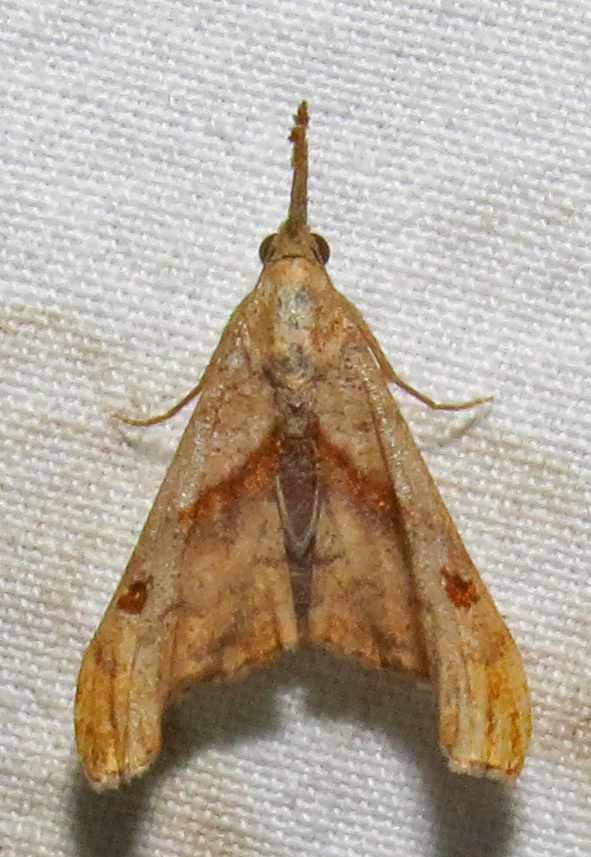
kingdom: Animalia
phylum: Arthropoda
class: Insecta
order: Lepidoptera
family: Erebidae
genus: Palthis
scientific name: Palthis angulalis
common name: Dark-spotted palthis moth
